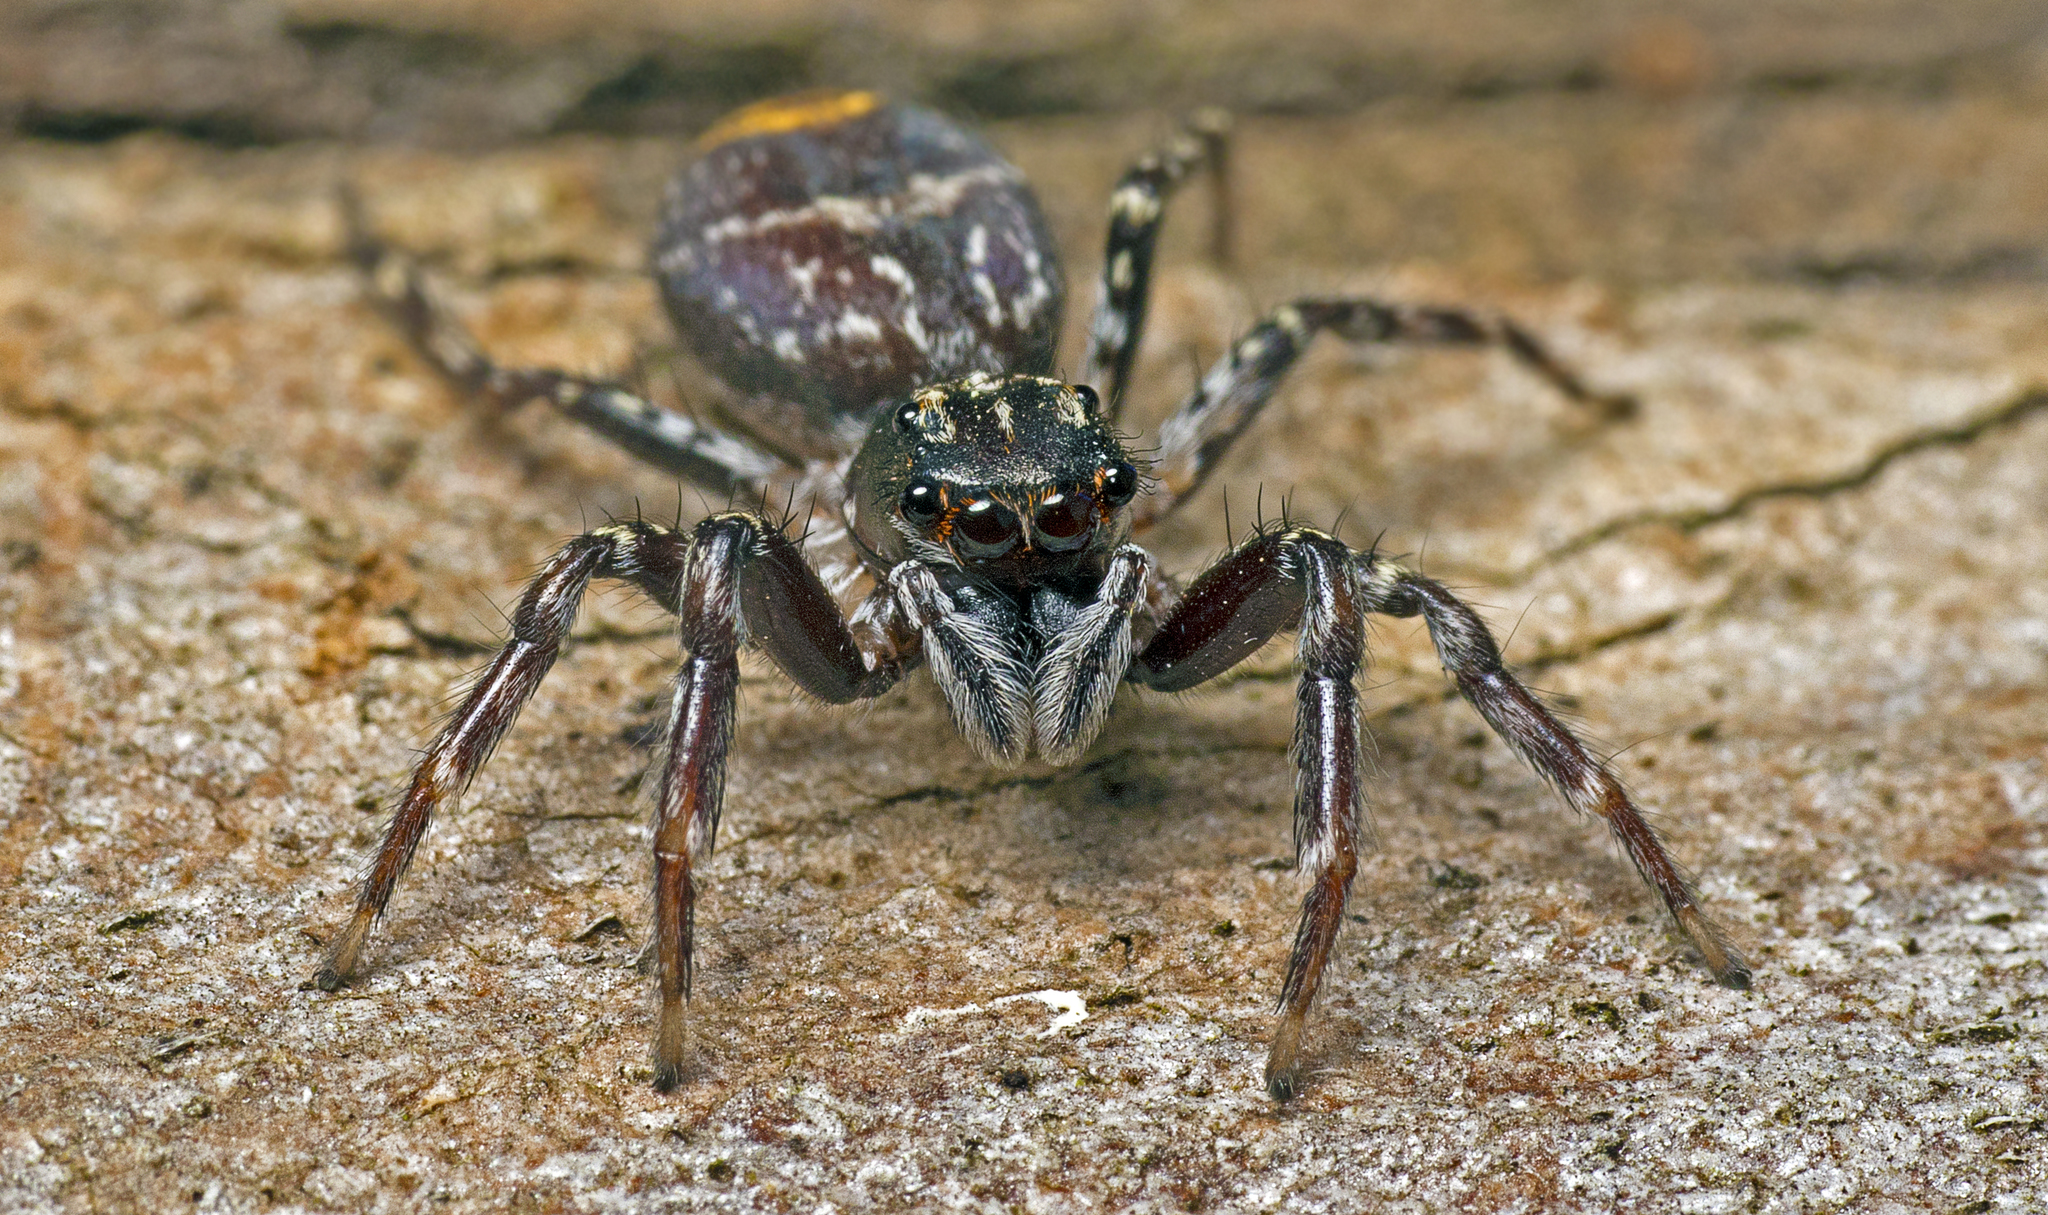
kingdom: Animalia
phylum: Arthropoda
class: Arachnida
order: Araneae
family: Salticidae
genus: Astia
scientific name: Astia
